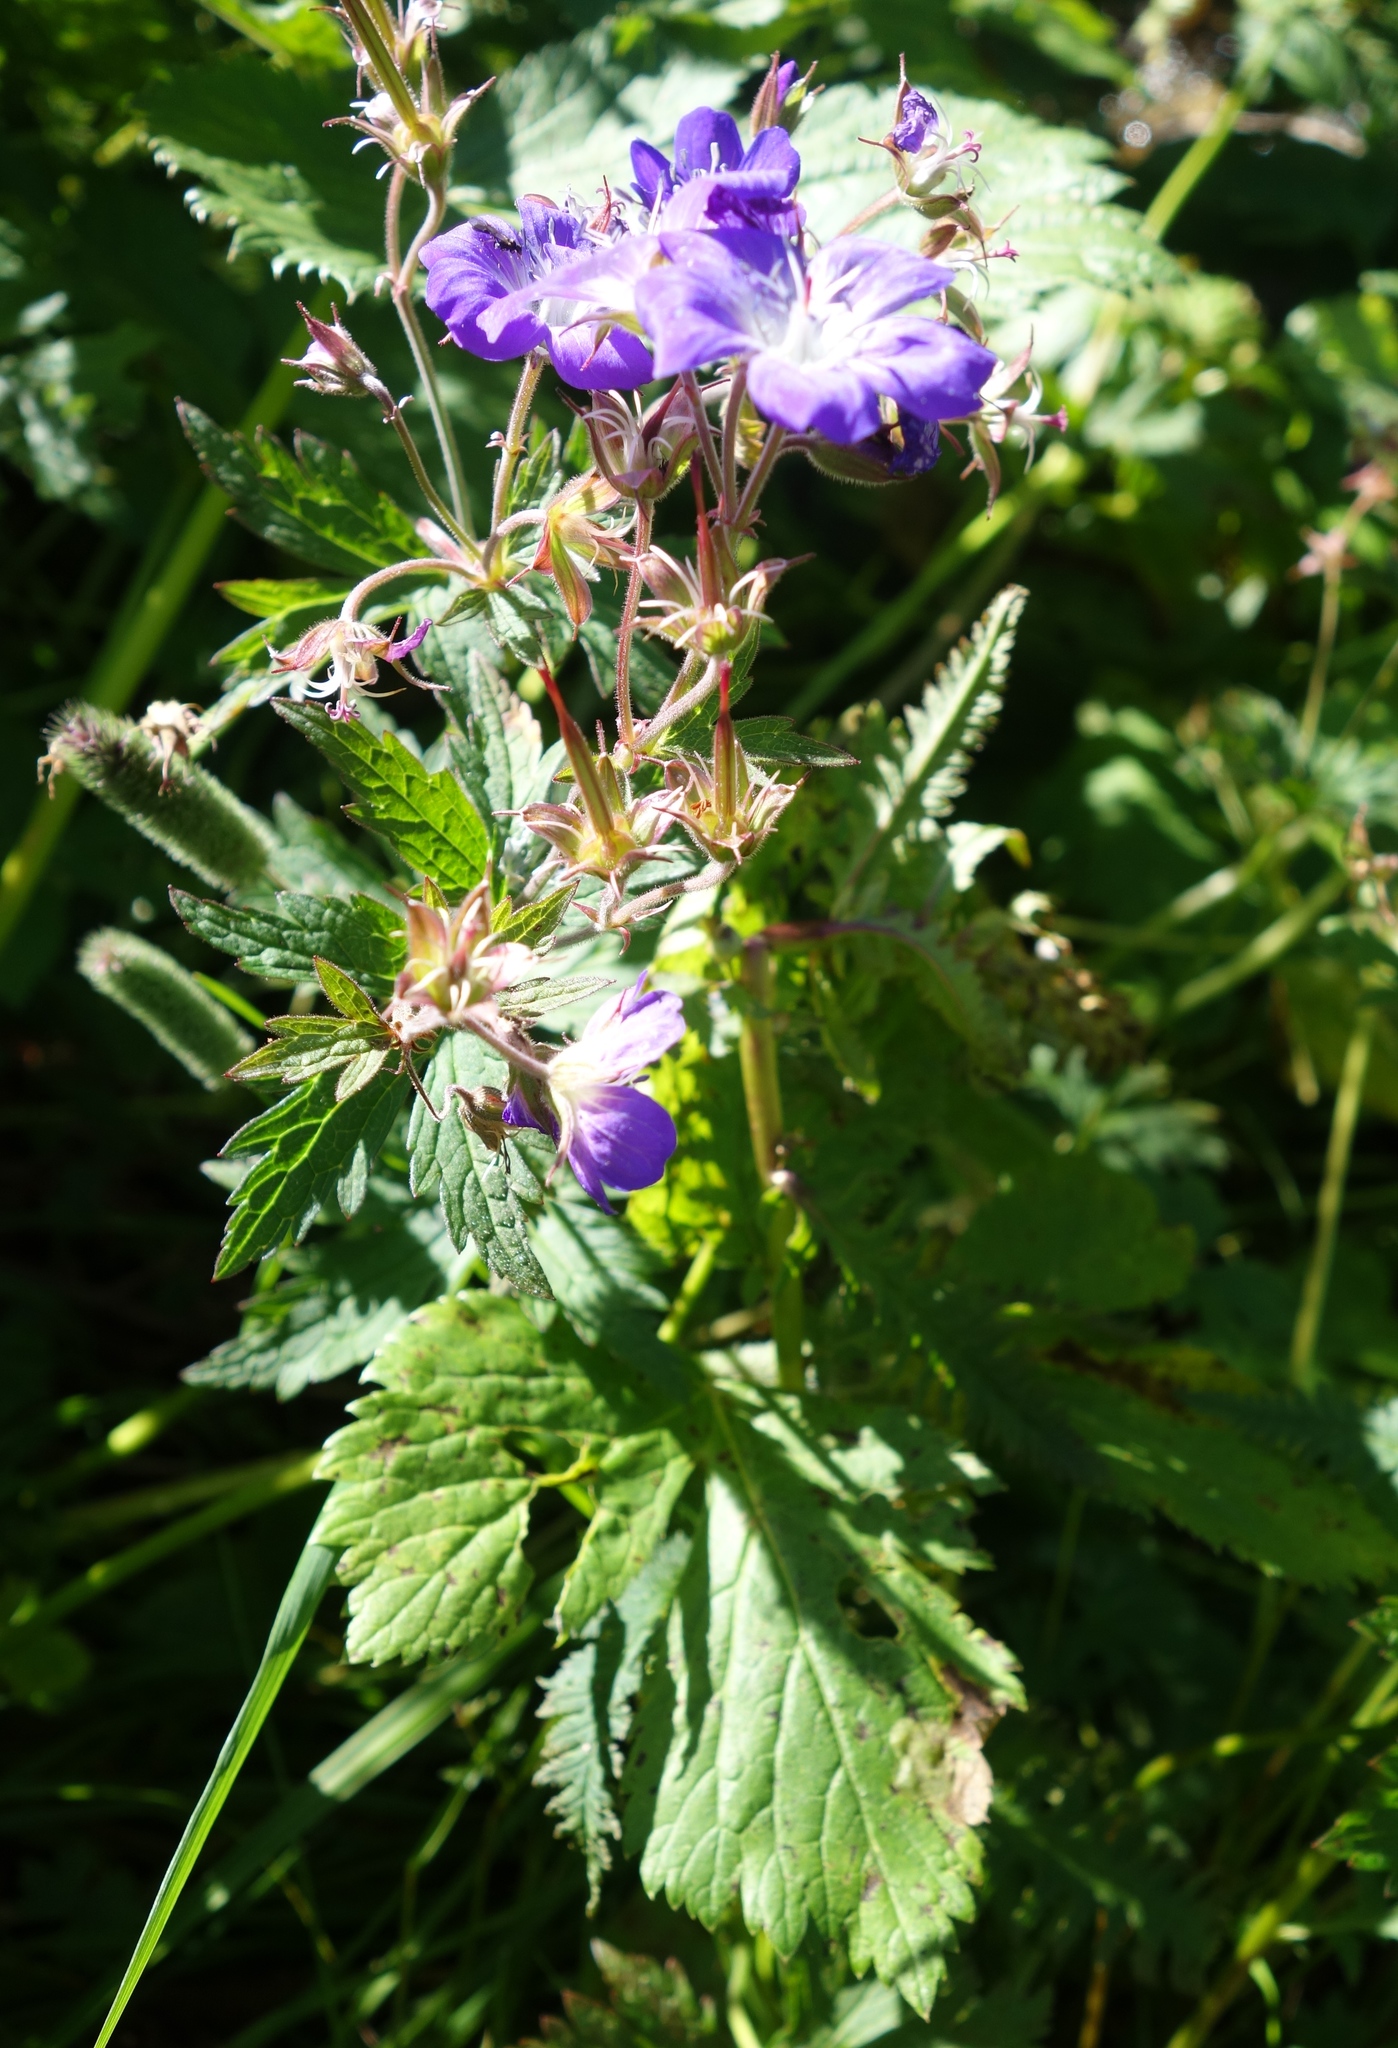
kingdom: Plantae
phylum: Tracheophyta
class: Magnoliopsida
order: Geraniales
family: Geraniaceae
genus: Geranium
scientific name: Geranium sylvaticum
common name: Wood crane's-bill
